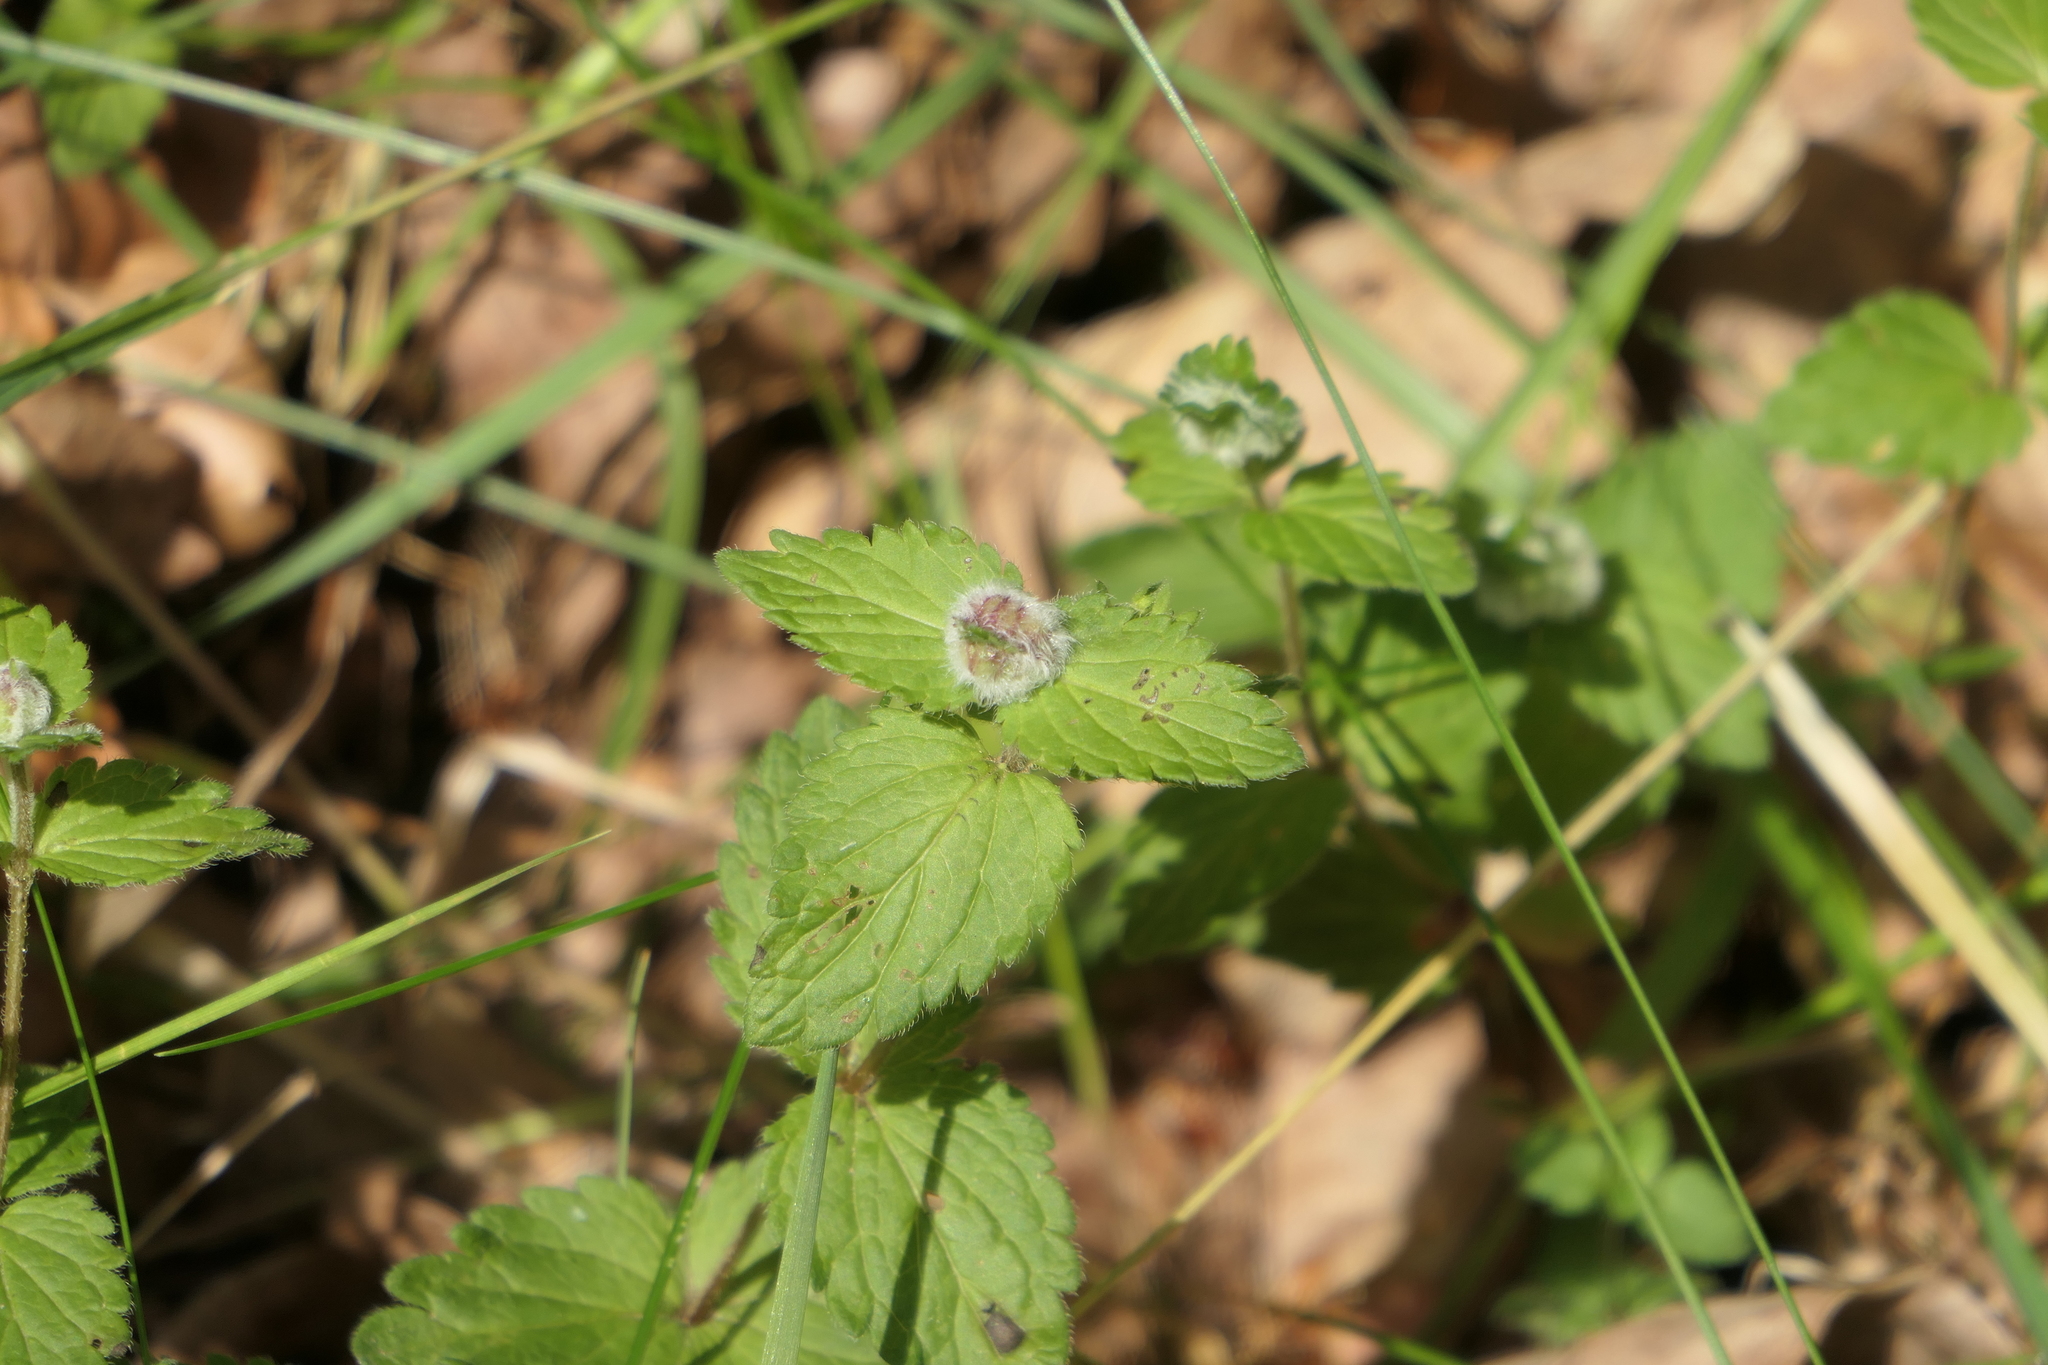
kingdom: Animalia
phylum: Arthropoda
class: Insecta
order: Diptera
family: Cecidomyiidae
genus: Jaapiella
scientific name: Jaapiella veronicae
